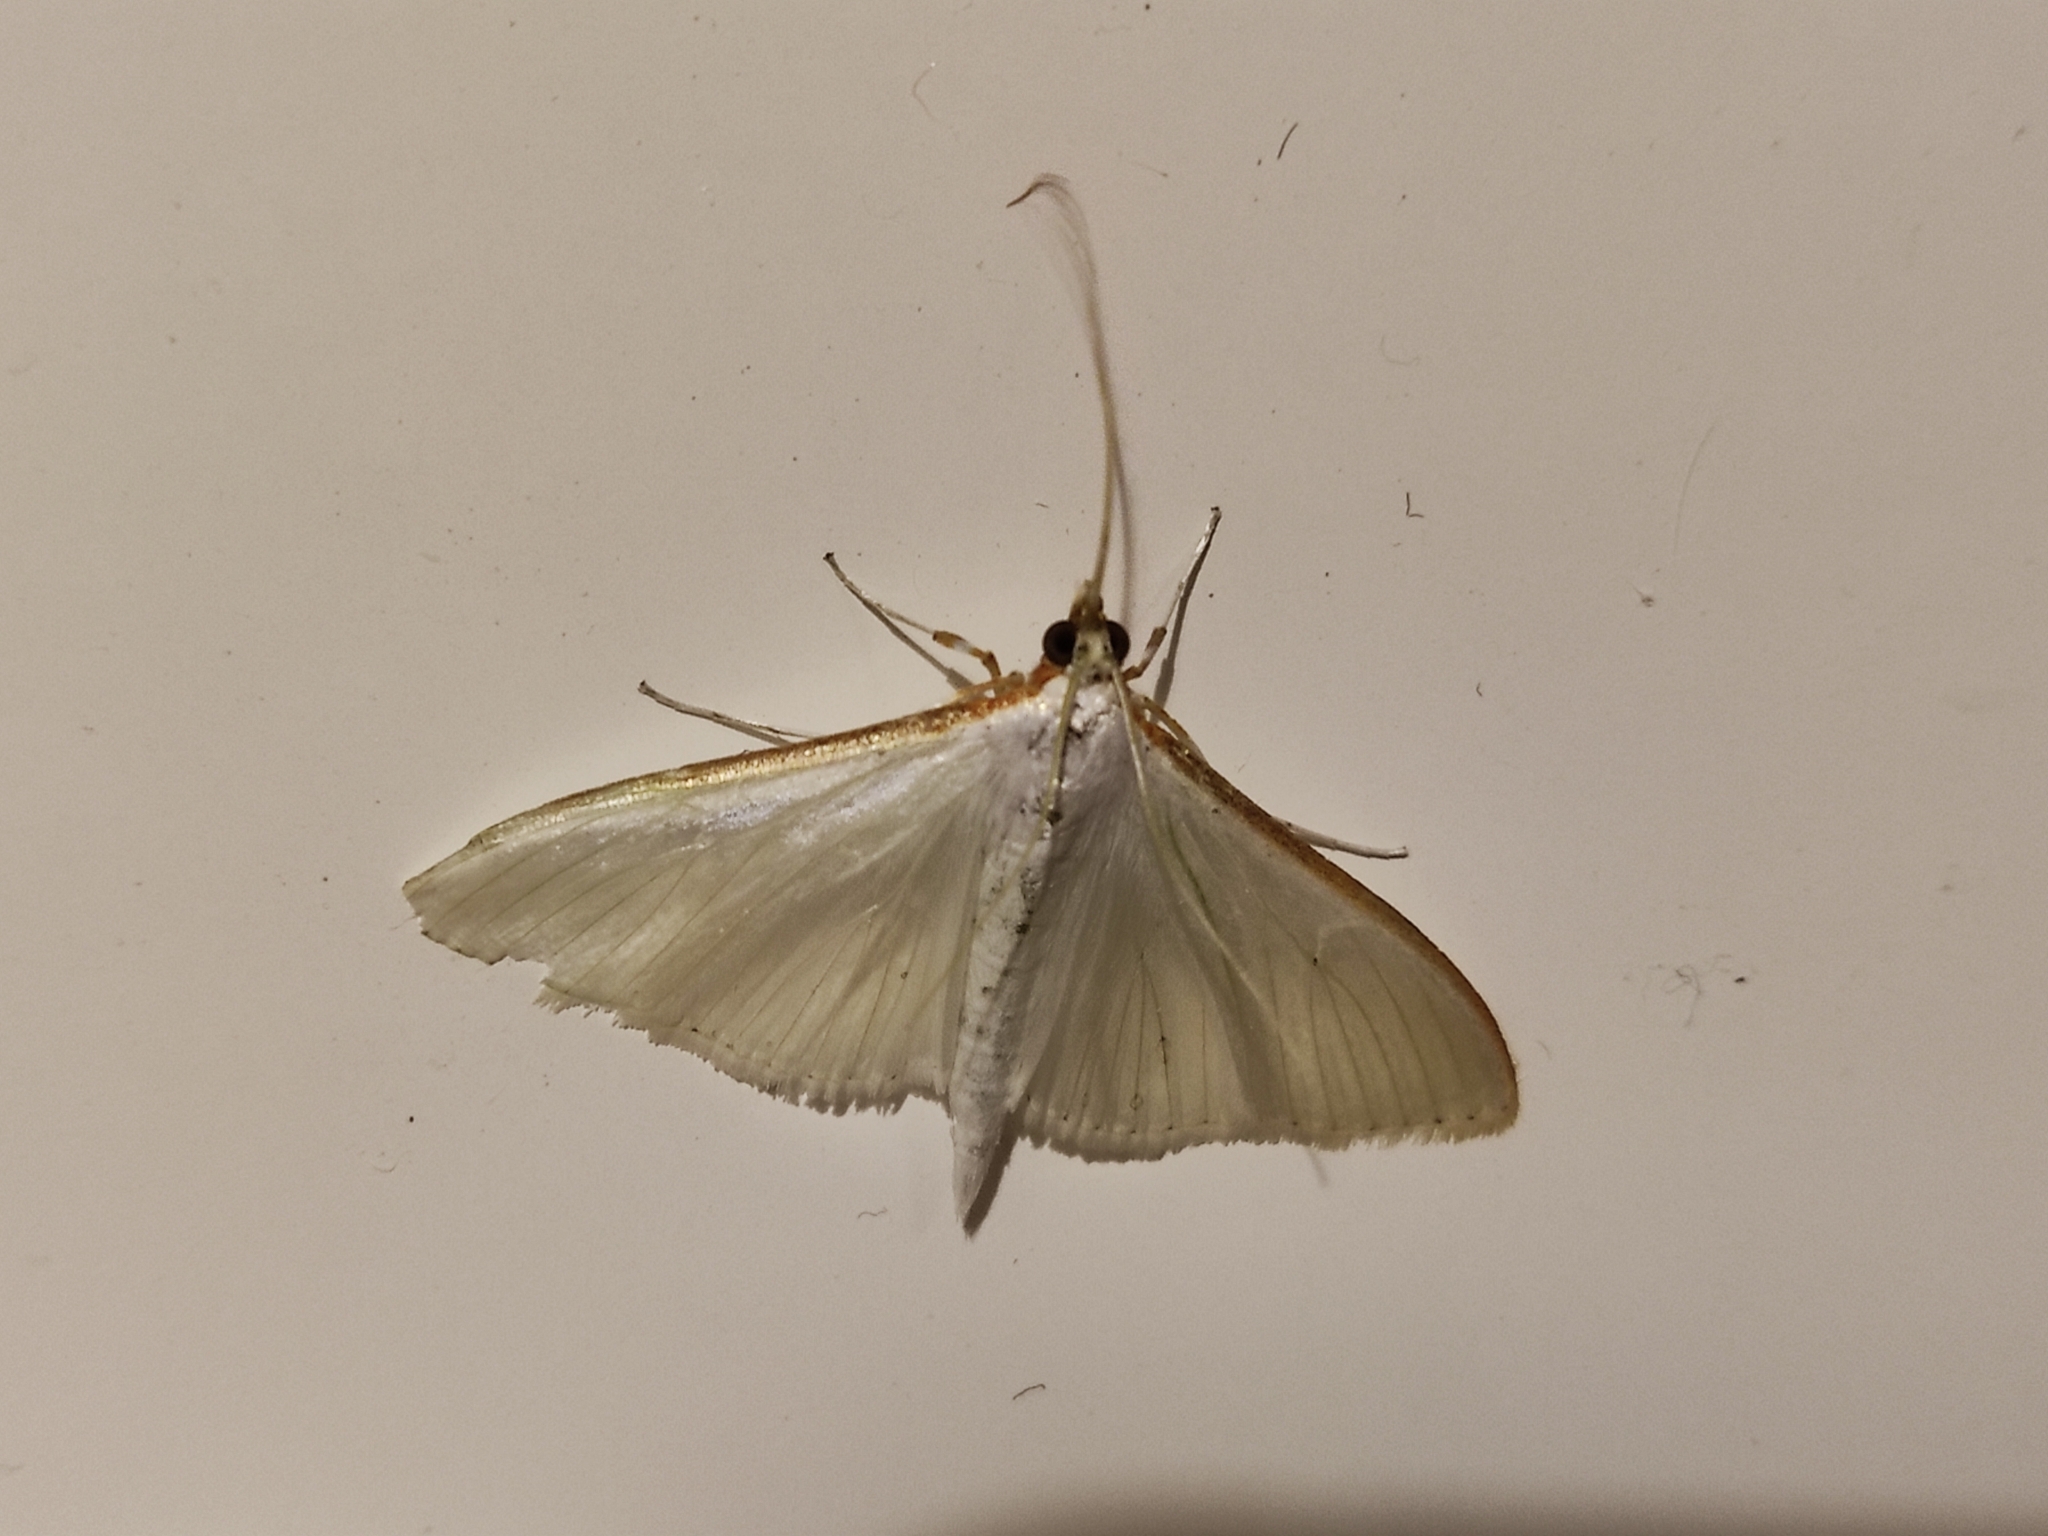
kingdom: Animalia
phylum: Arthropoda
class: Insecta
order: Lepidoptera
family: Crambidae
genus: Palpita
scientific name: Palpita vitrealis
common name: Olive-tree pearl
